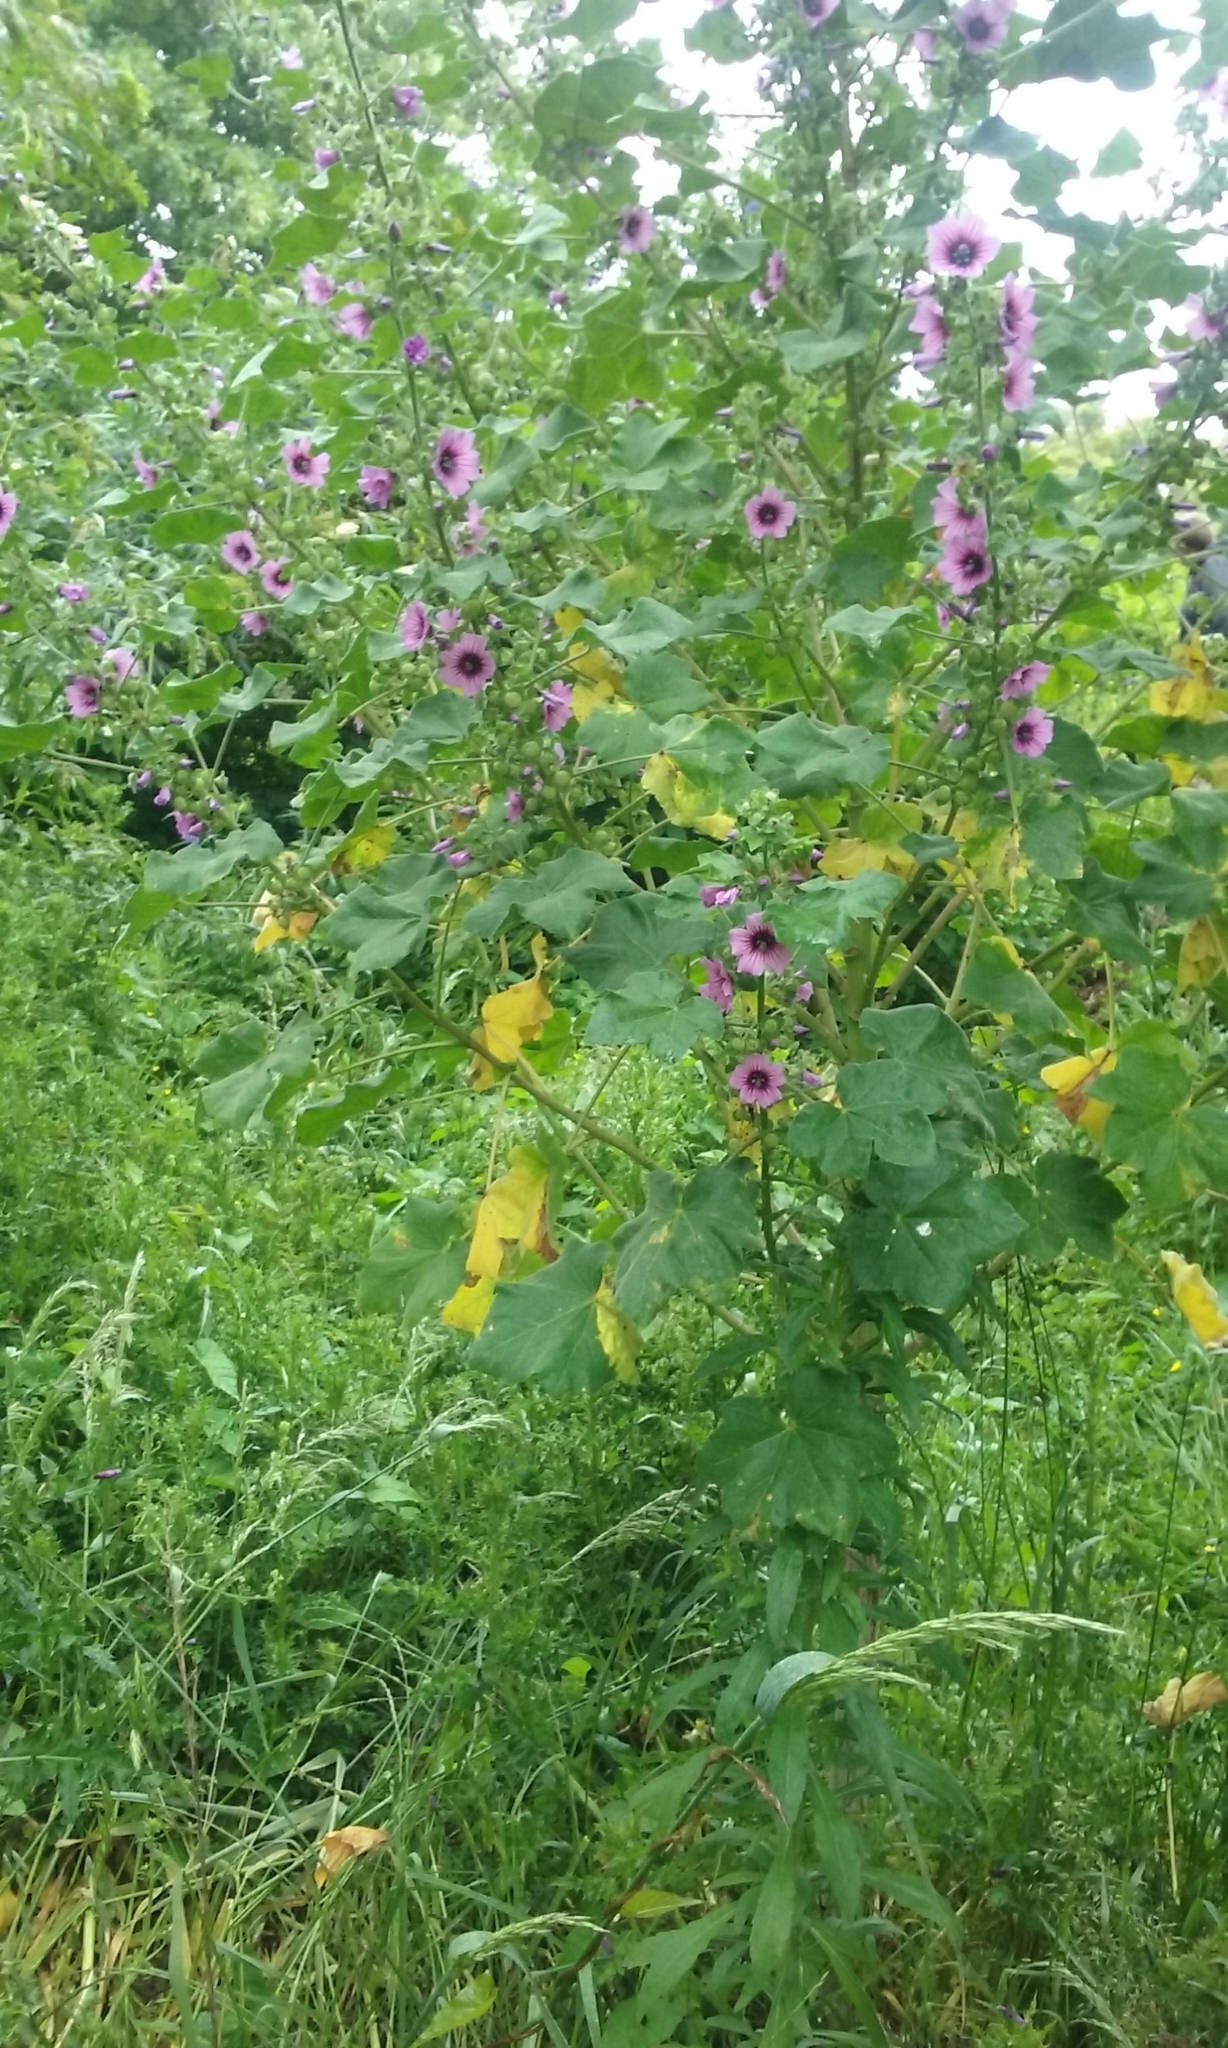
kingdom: Plantae
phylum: Tracheophyta
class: Magnoliopsida
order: Malvales
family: Malvaceae
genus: Malva
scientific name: Malva arborea
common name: Tree mallow
